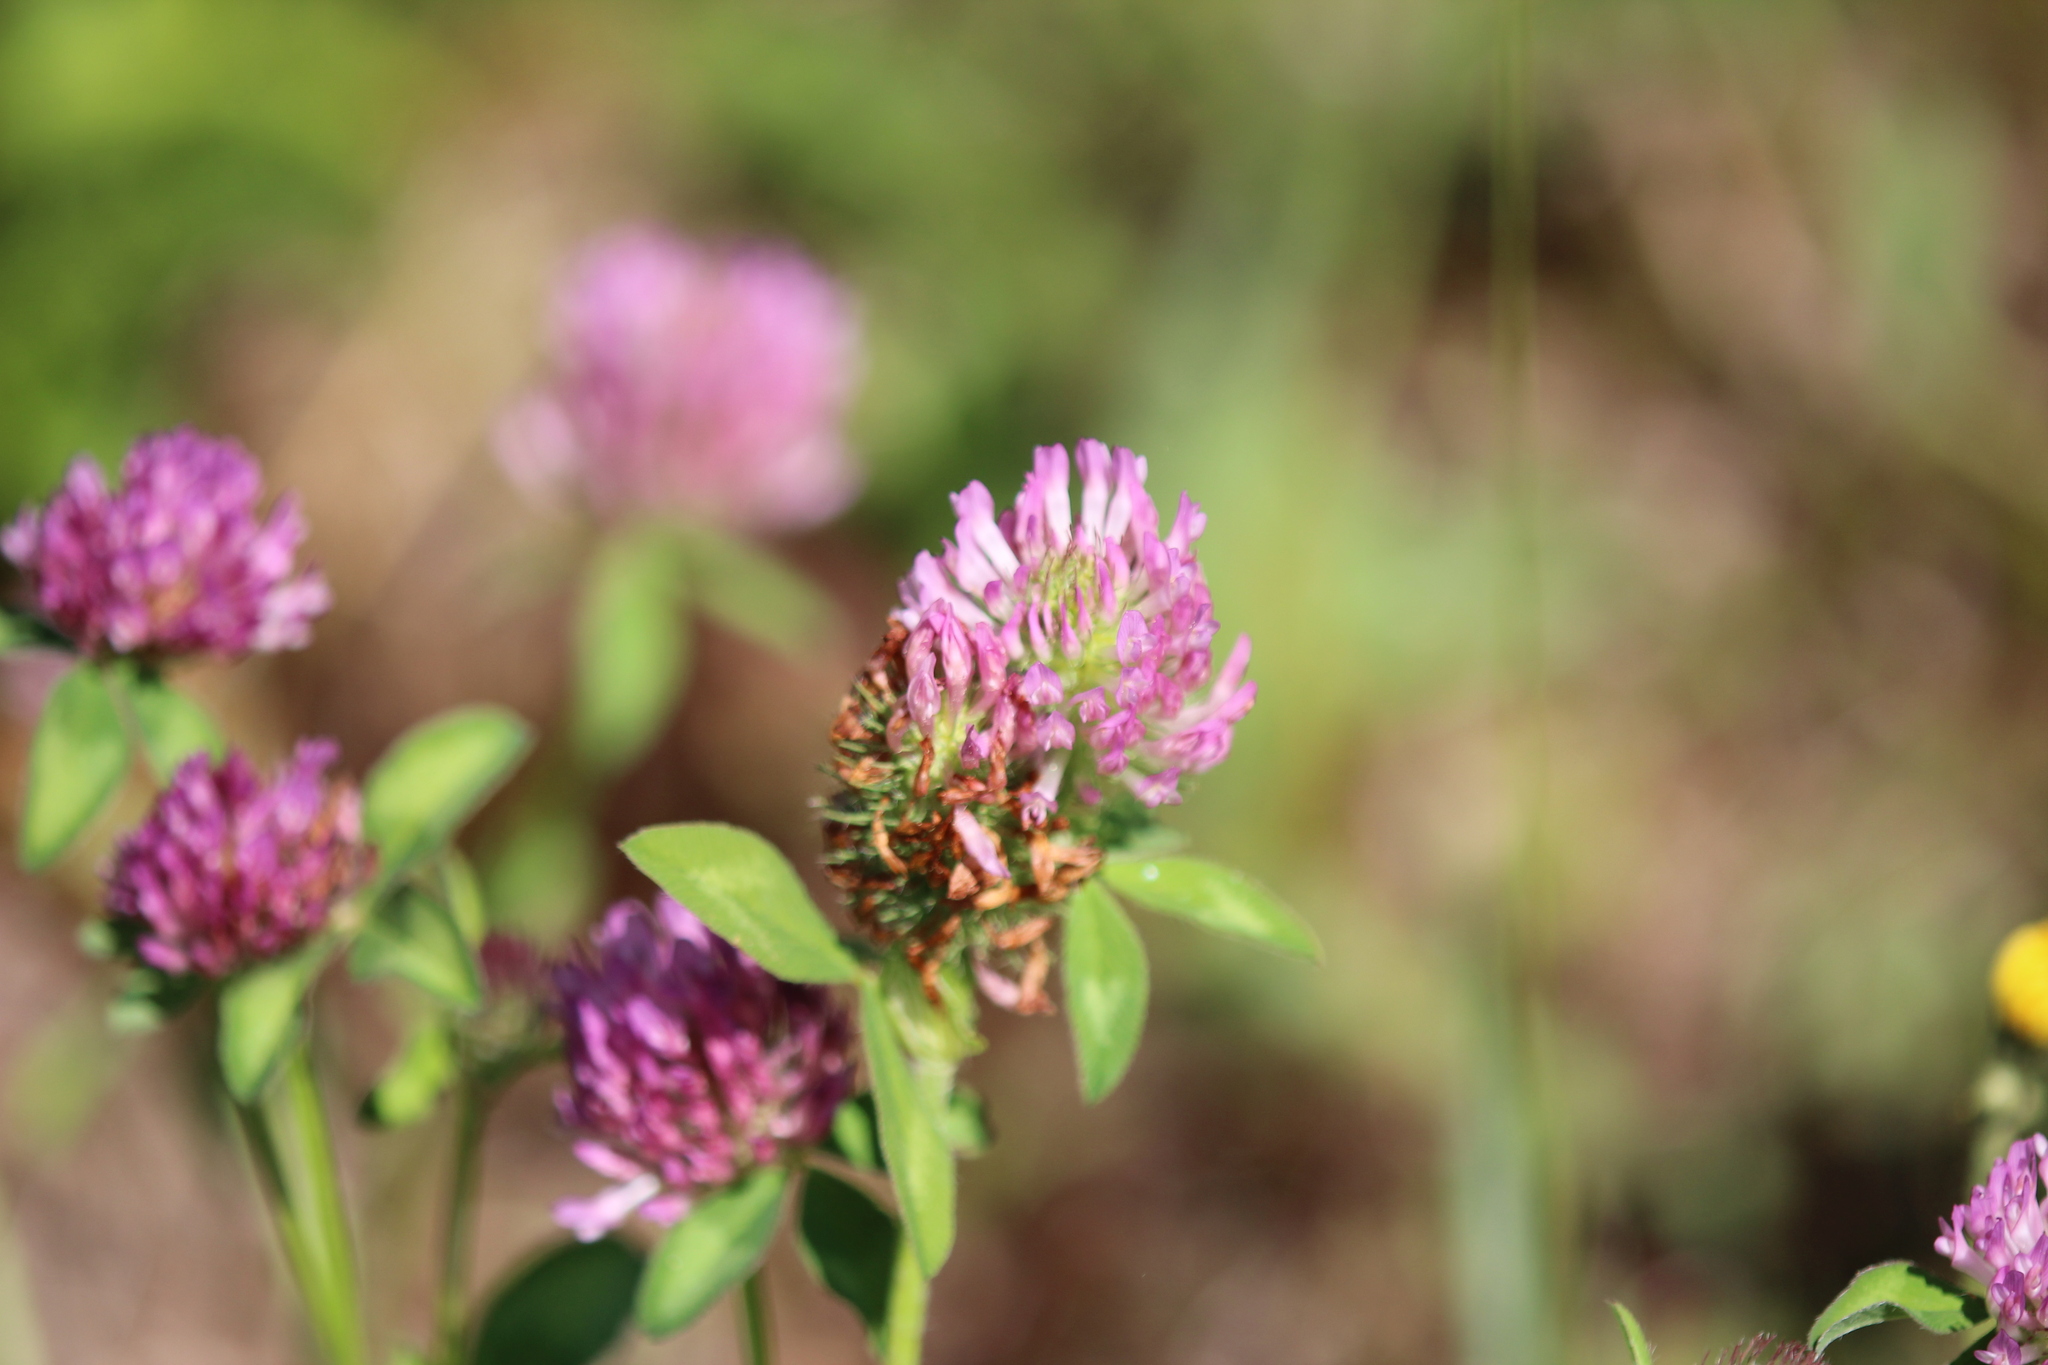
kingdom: Plantae
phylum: Tracheophyta
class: Magnoliopsida
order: Fabales
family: Fabaceae
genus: Trifolium
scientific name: Trifolium pratense
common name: Red clover
